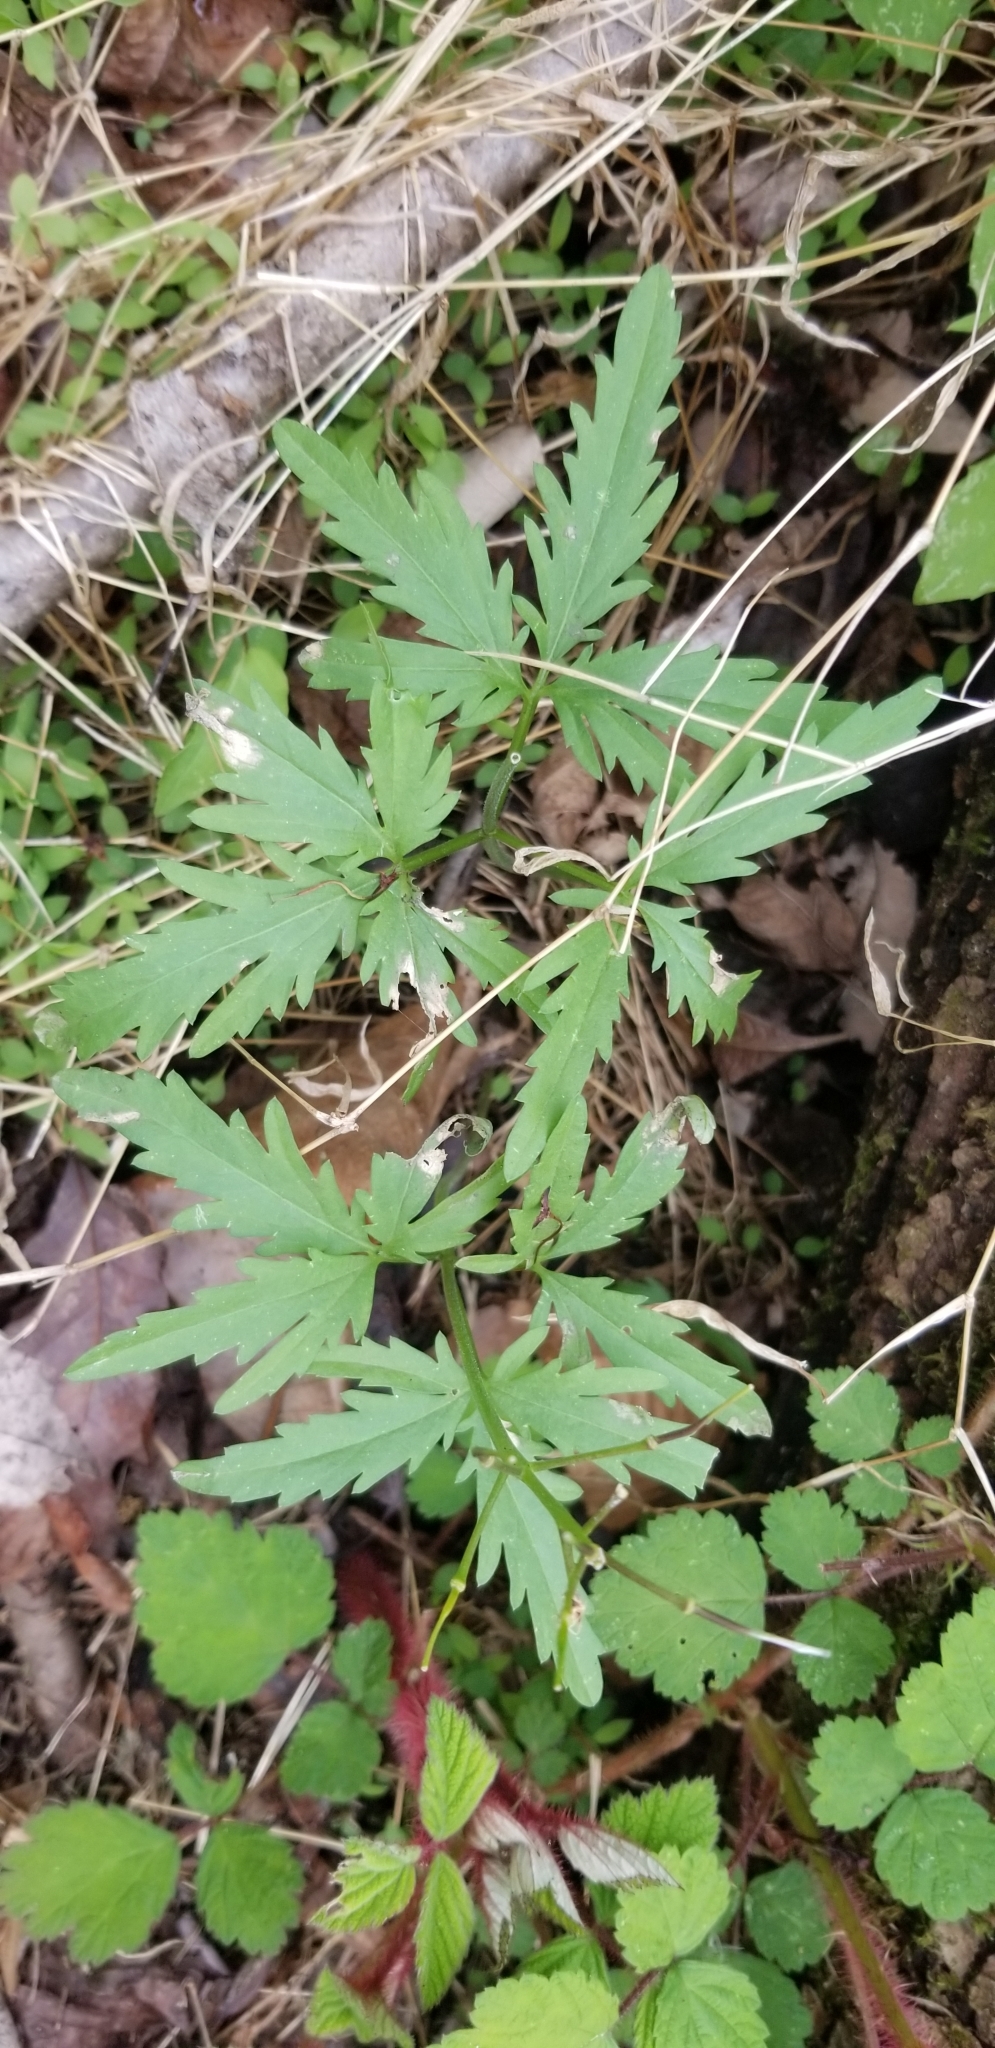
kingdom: Plantae
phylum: Tracheophyta
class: Magnoliopsida
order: Brassicales
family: Brassicaceae
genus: Cardamine
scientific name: Cardamine concatenata
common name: Cut-leaf toothcup
